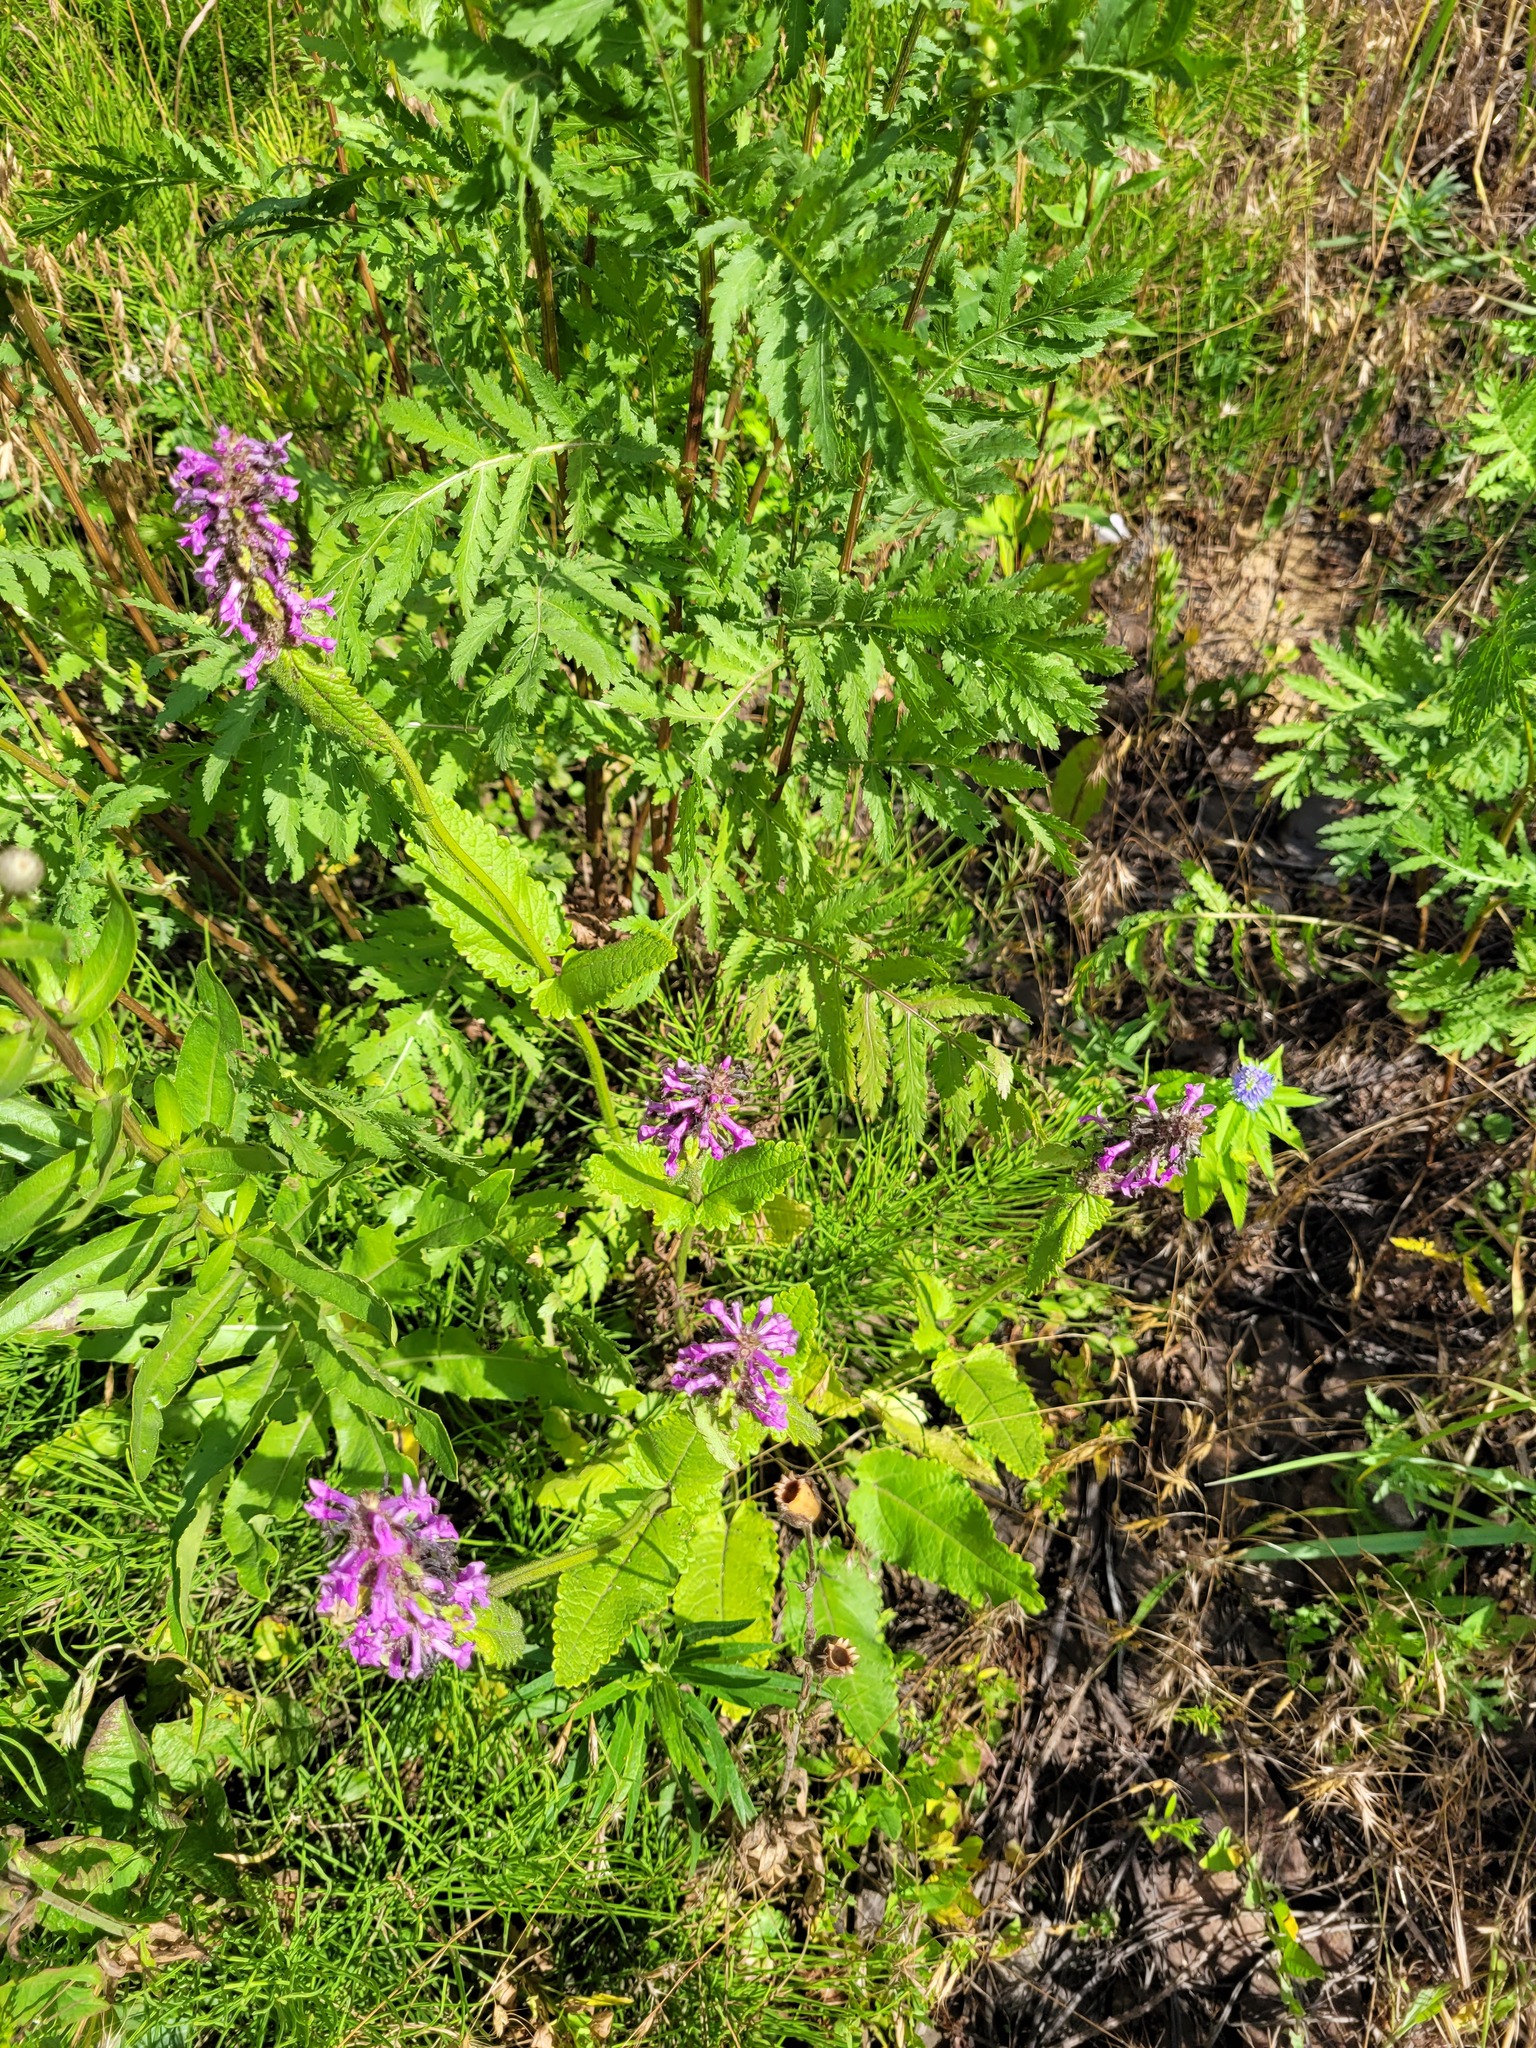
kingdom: Plantae
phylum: Tracheophyta
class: Magnoliopsida
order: Lamiales
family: Lamiaceae
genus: Betonica
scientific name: Betonica officinalis
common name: Bishop's-wort
